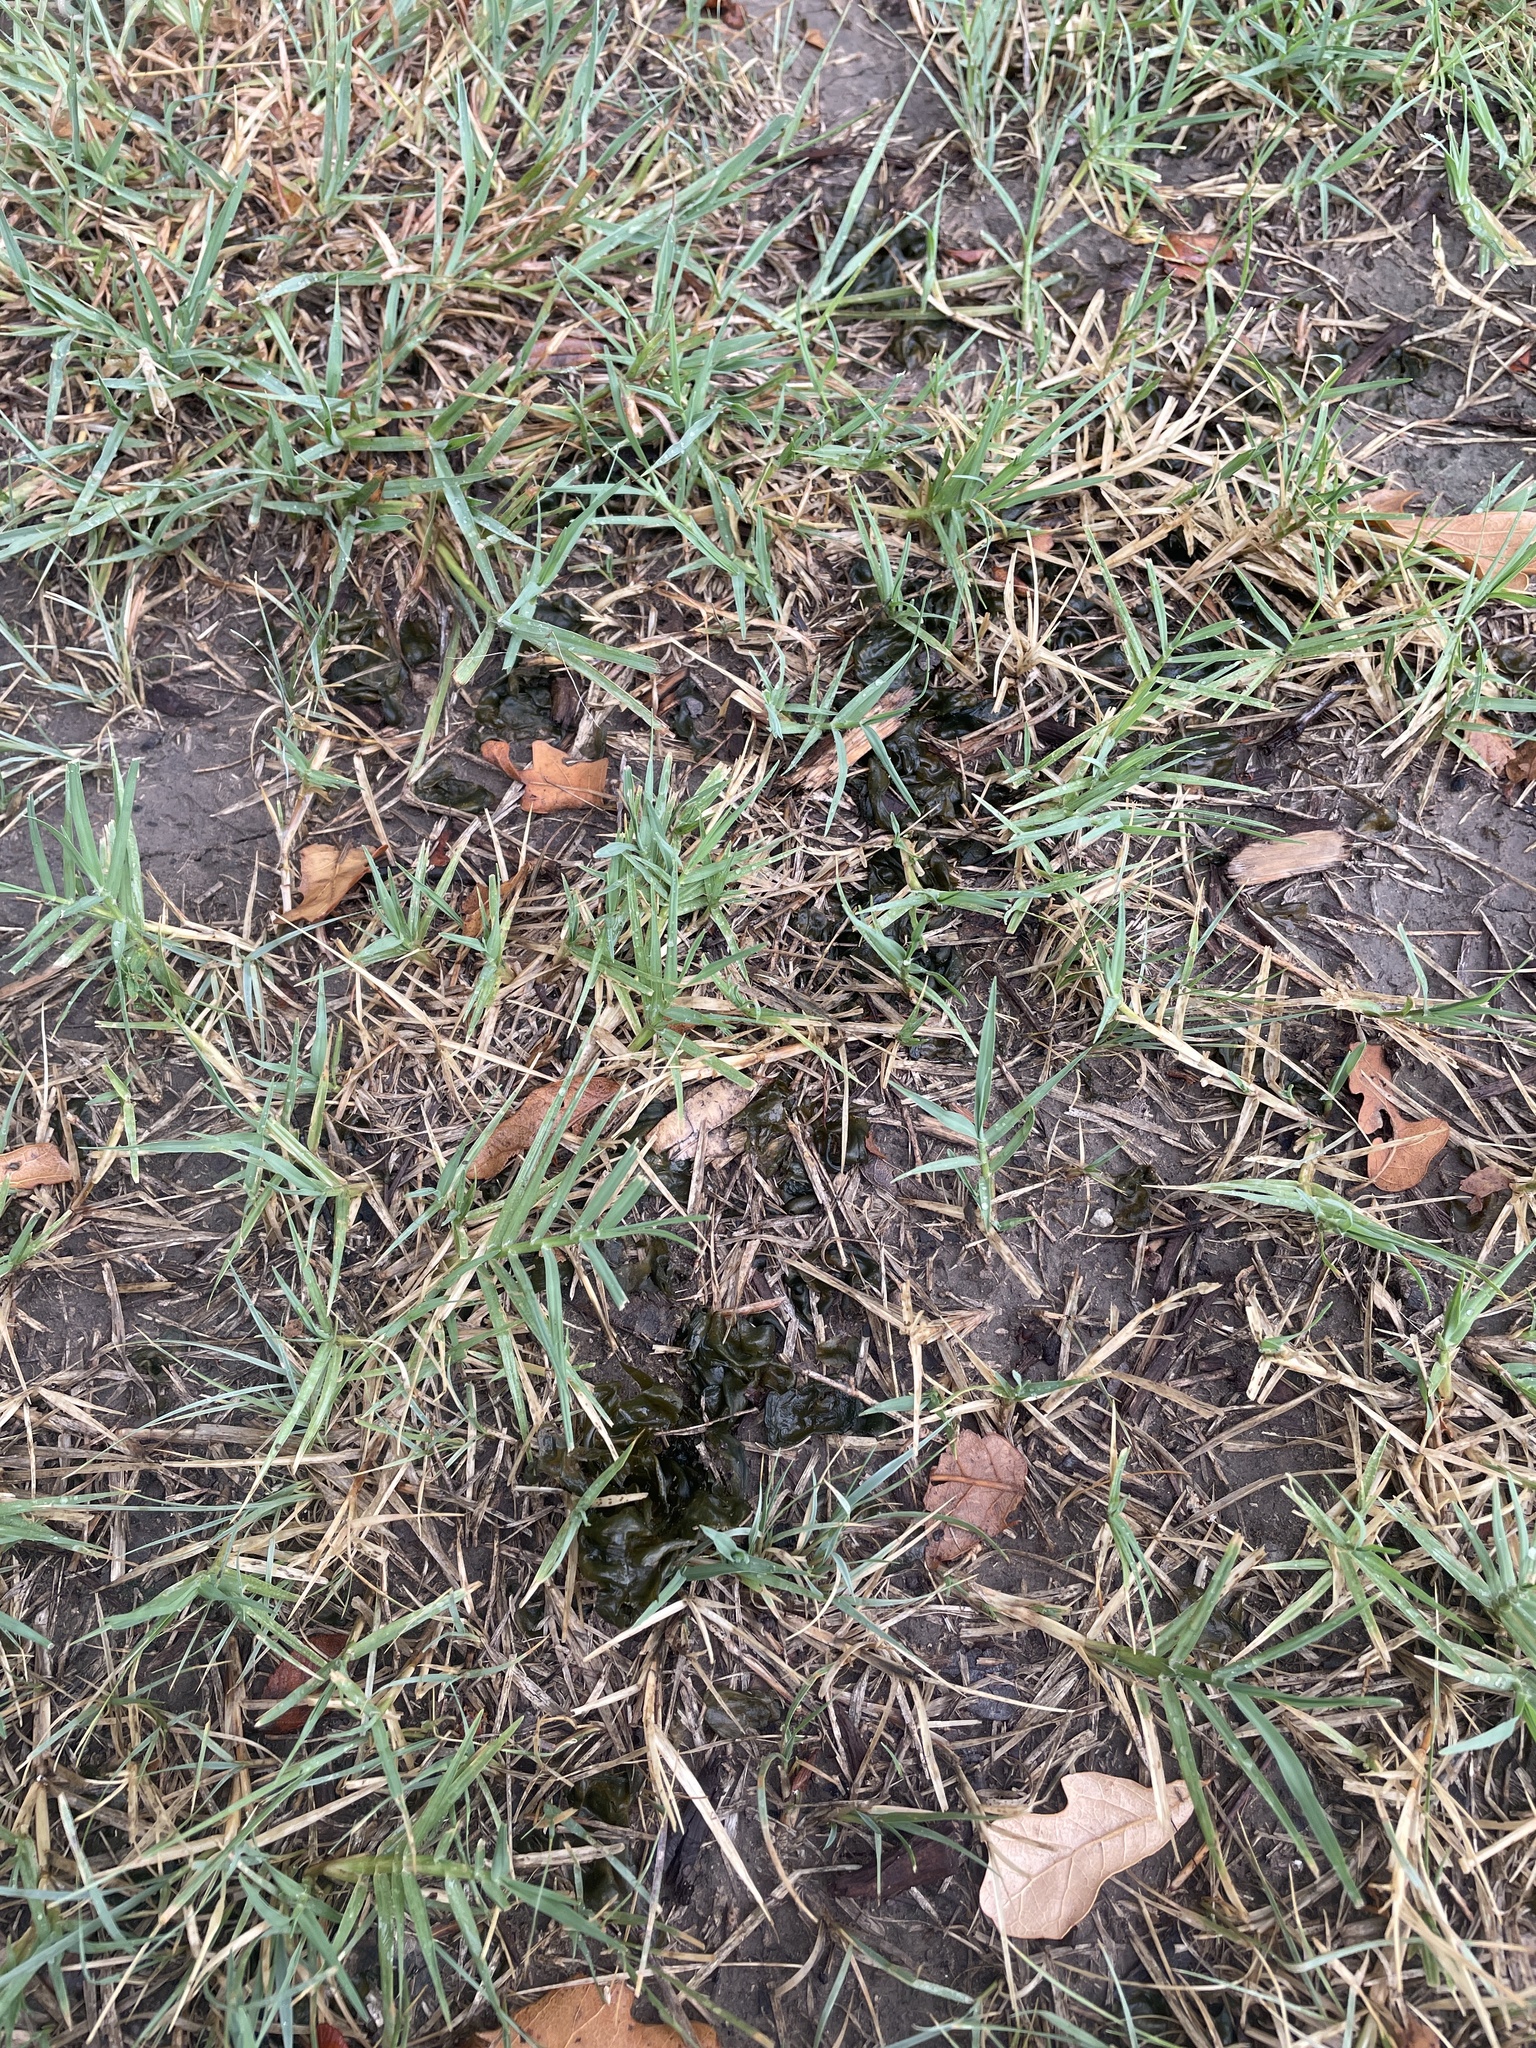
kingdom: Bacteria
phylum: Cyanobacteria
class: Cyanobacteriia
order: Cyanobacteriales
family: Nostocaceae
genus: Nostoc
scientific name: Nostoc commune
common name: Star jelly
